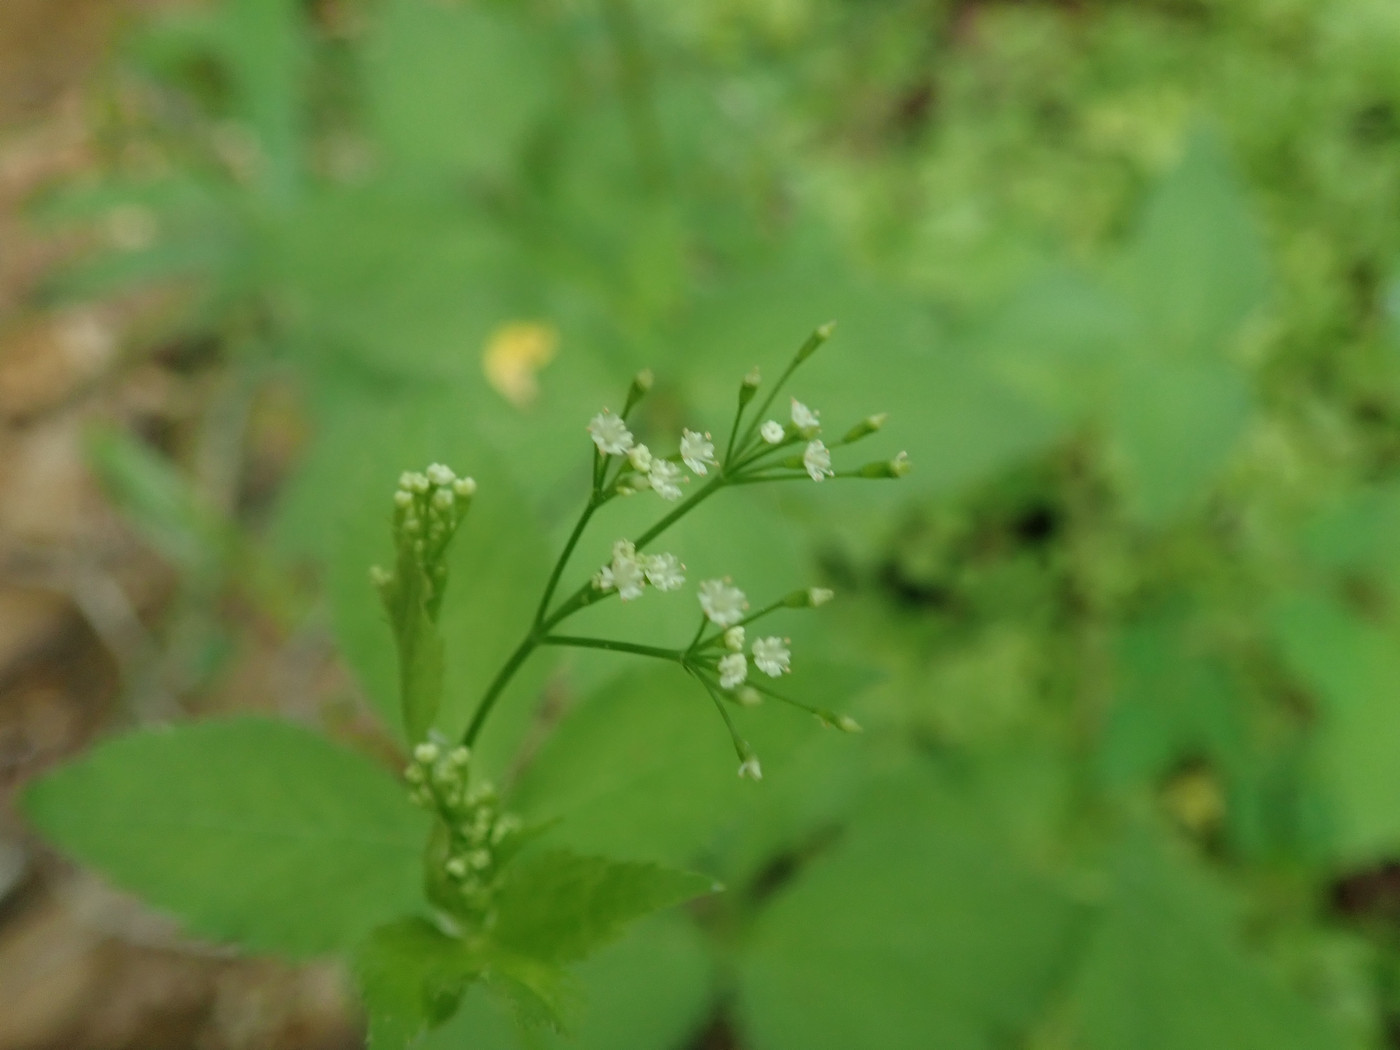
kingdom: Plantae
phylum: Tracheophyta
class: Magnoliopsida
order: Apiales
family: Apiaceae
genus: Cryptotaenia
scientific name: Cryptotaenia canadensis
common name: Honewort
